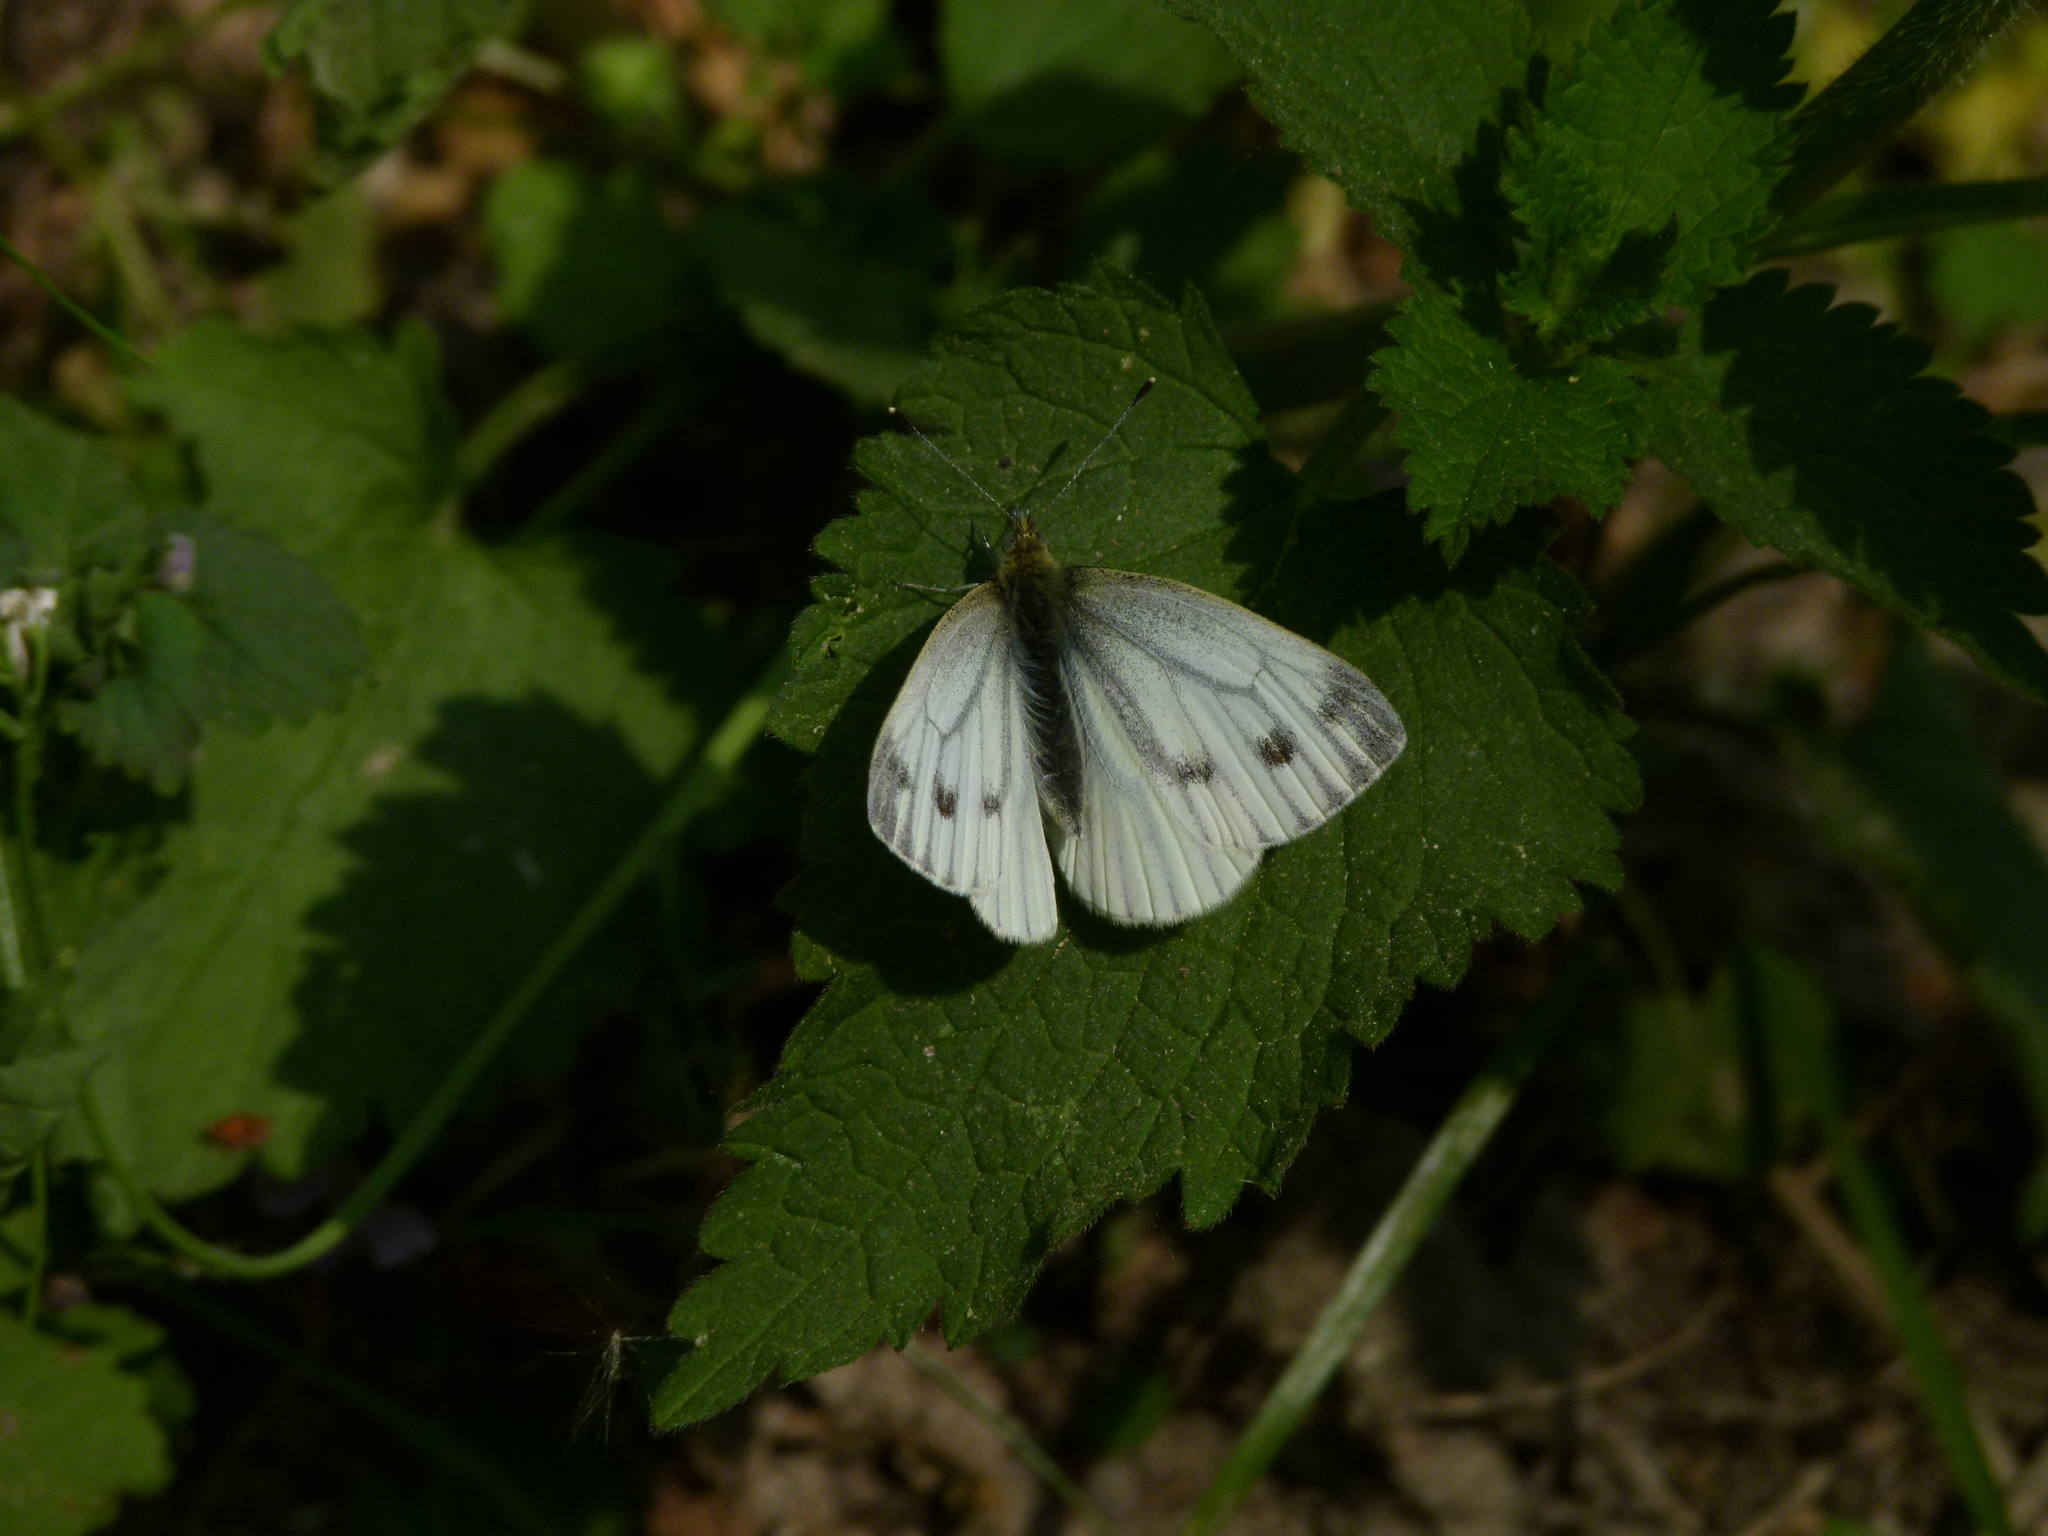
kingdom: Animalia
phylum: Arthropoda
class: Insecta
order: Lepidoptera
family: Pieridae
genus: Pieris
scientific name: Pieris napi
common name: Green-veined white
